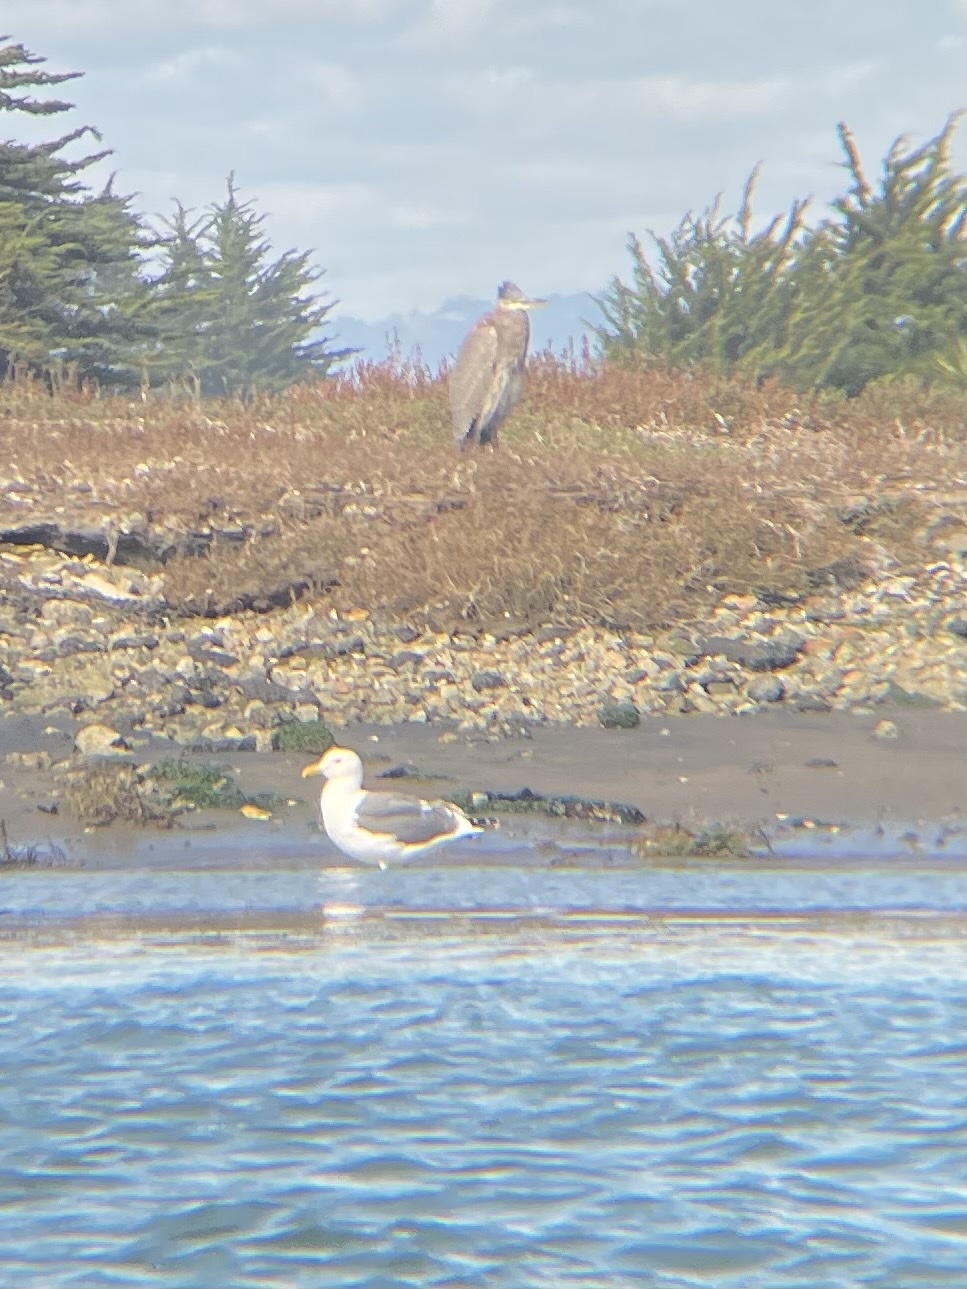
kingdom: Animalia
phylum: Chordata
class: Aves
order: Charadriiformes
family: Laridae
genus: Larus
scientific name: Larus occidentalis
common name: Western gull
